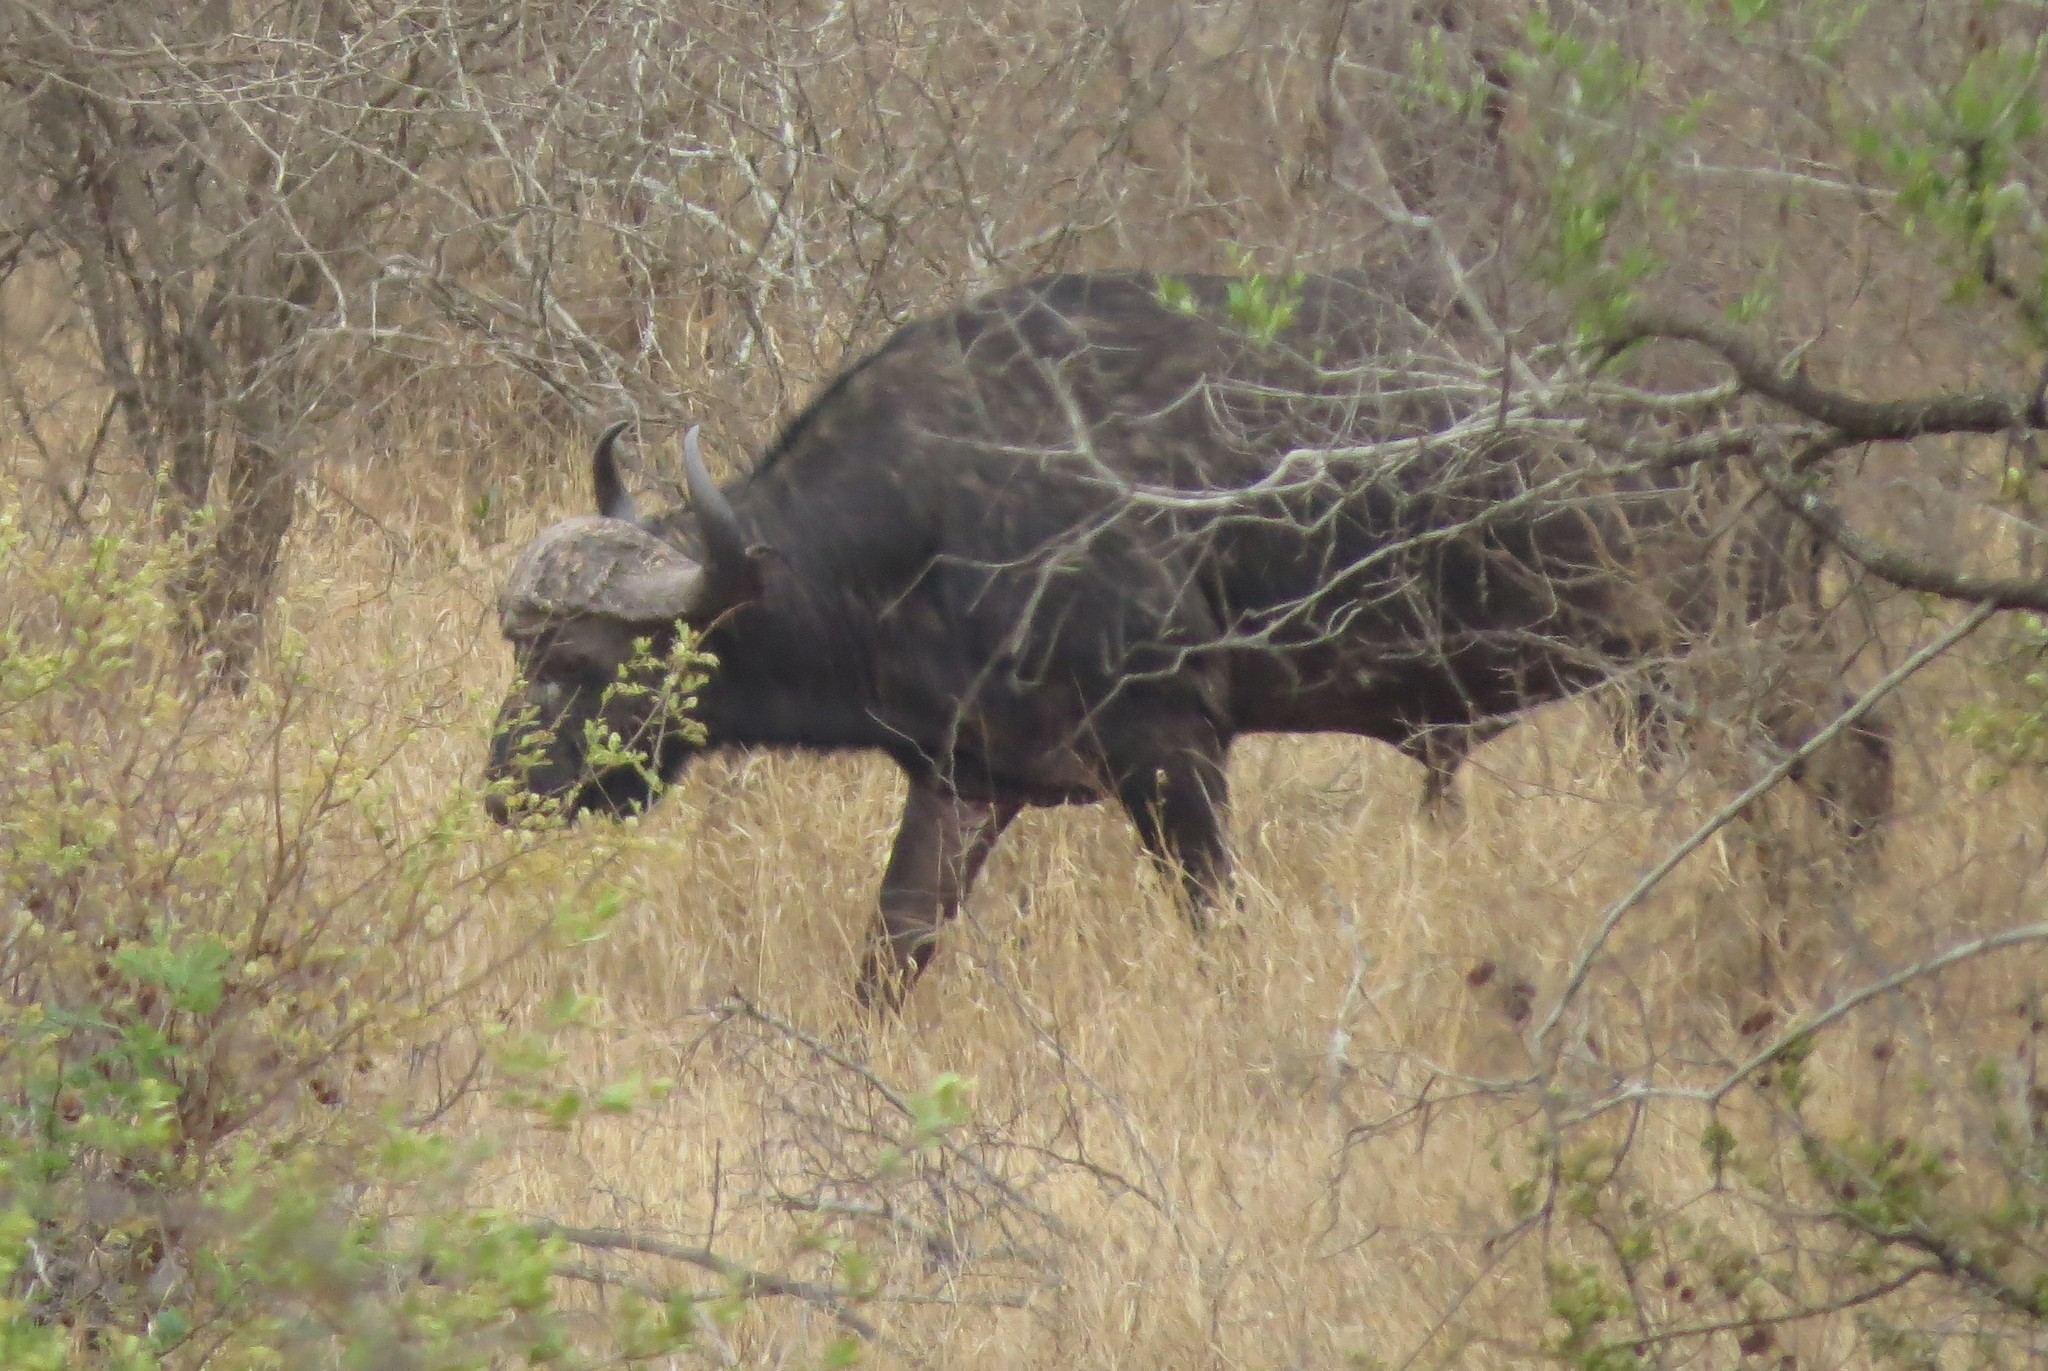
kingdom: Animalia
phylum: Chordata
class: Mammalia
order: Artiodactyla
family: Bovidae
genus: Syncerus
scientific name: Syncerus caffer
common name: African buffalo
